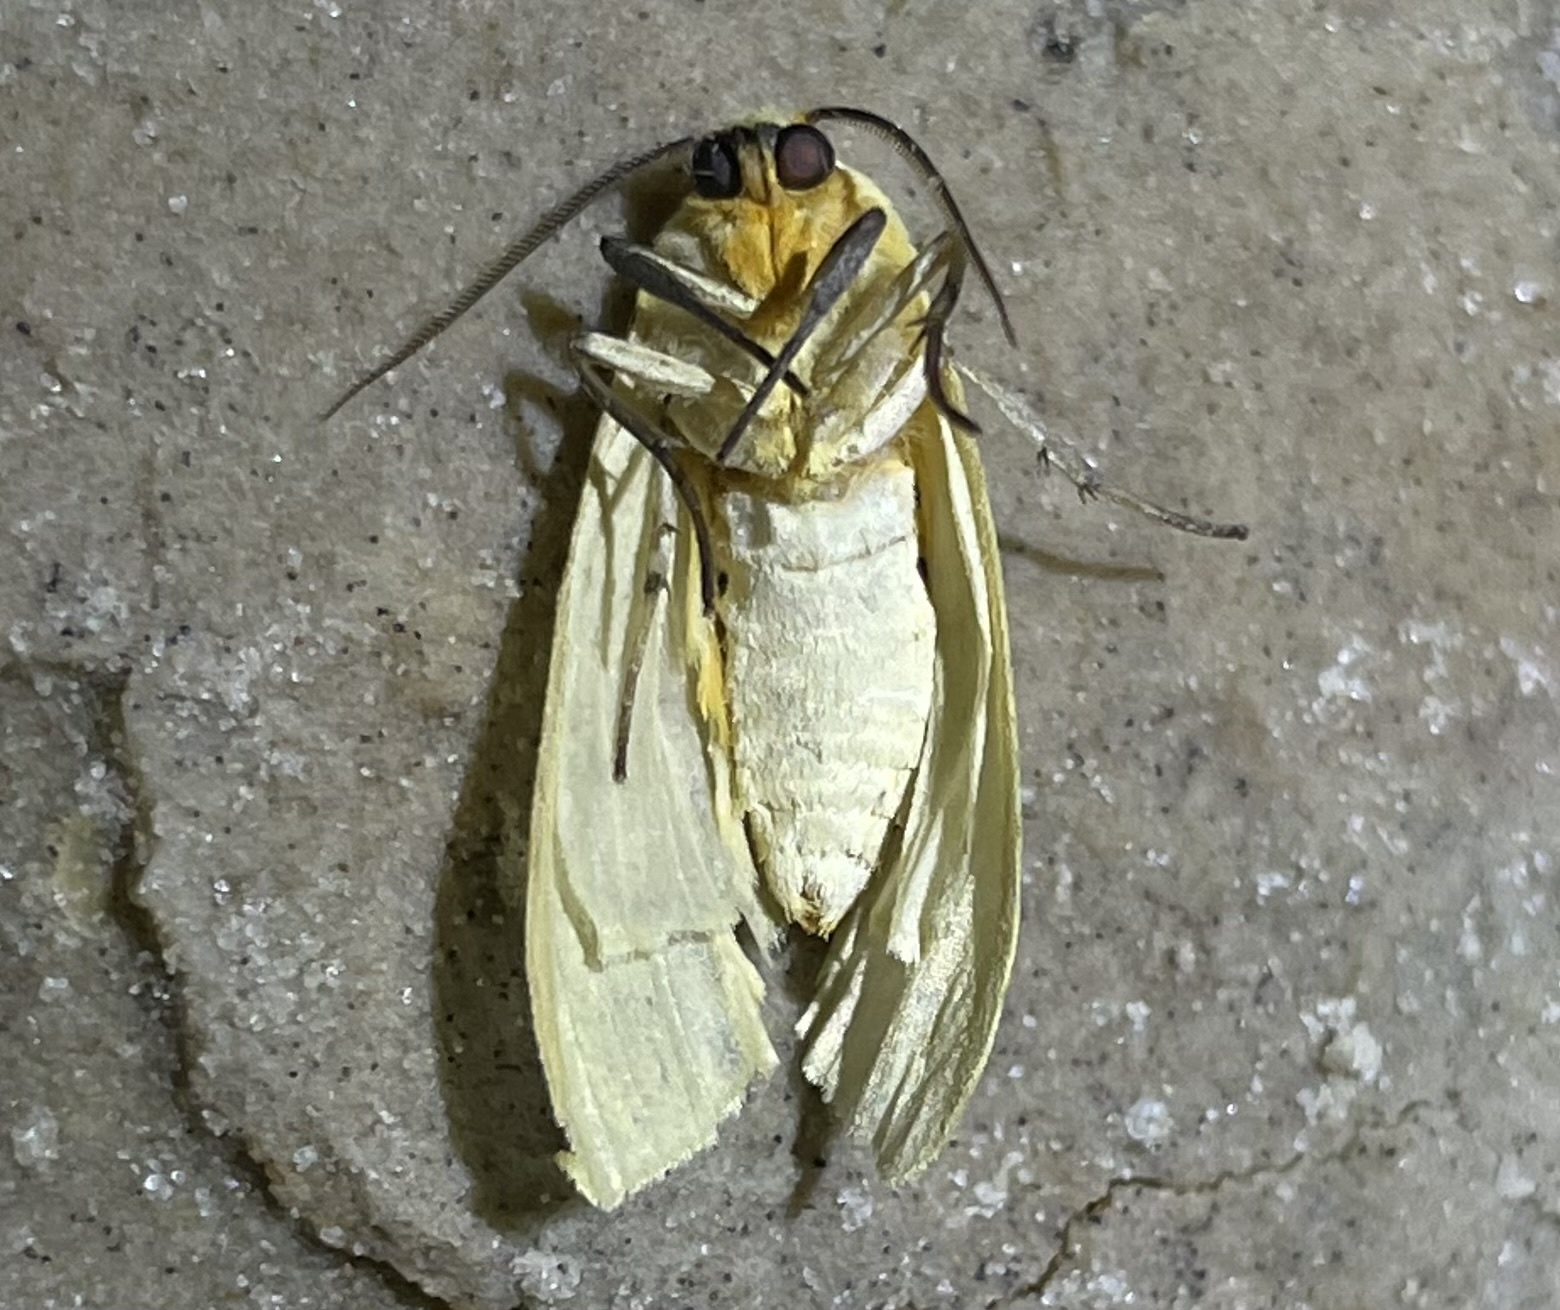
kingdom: Animalia
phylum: Arthropoda
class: Insecta
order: Lepidoptera
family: Erebidae
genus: Pareuchaetes
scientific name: Pareuchaetes insulata
